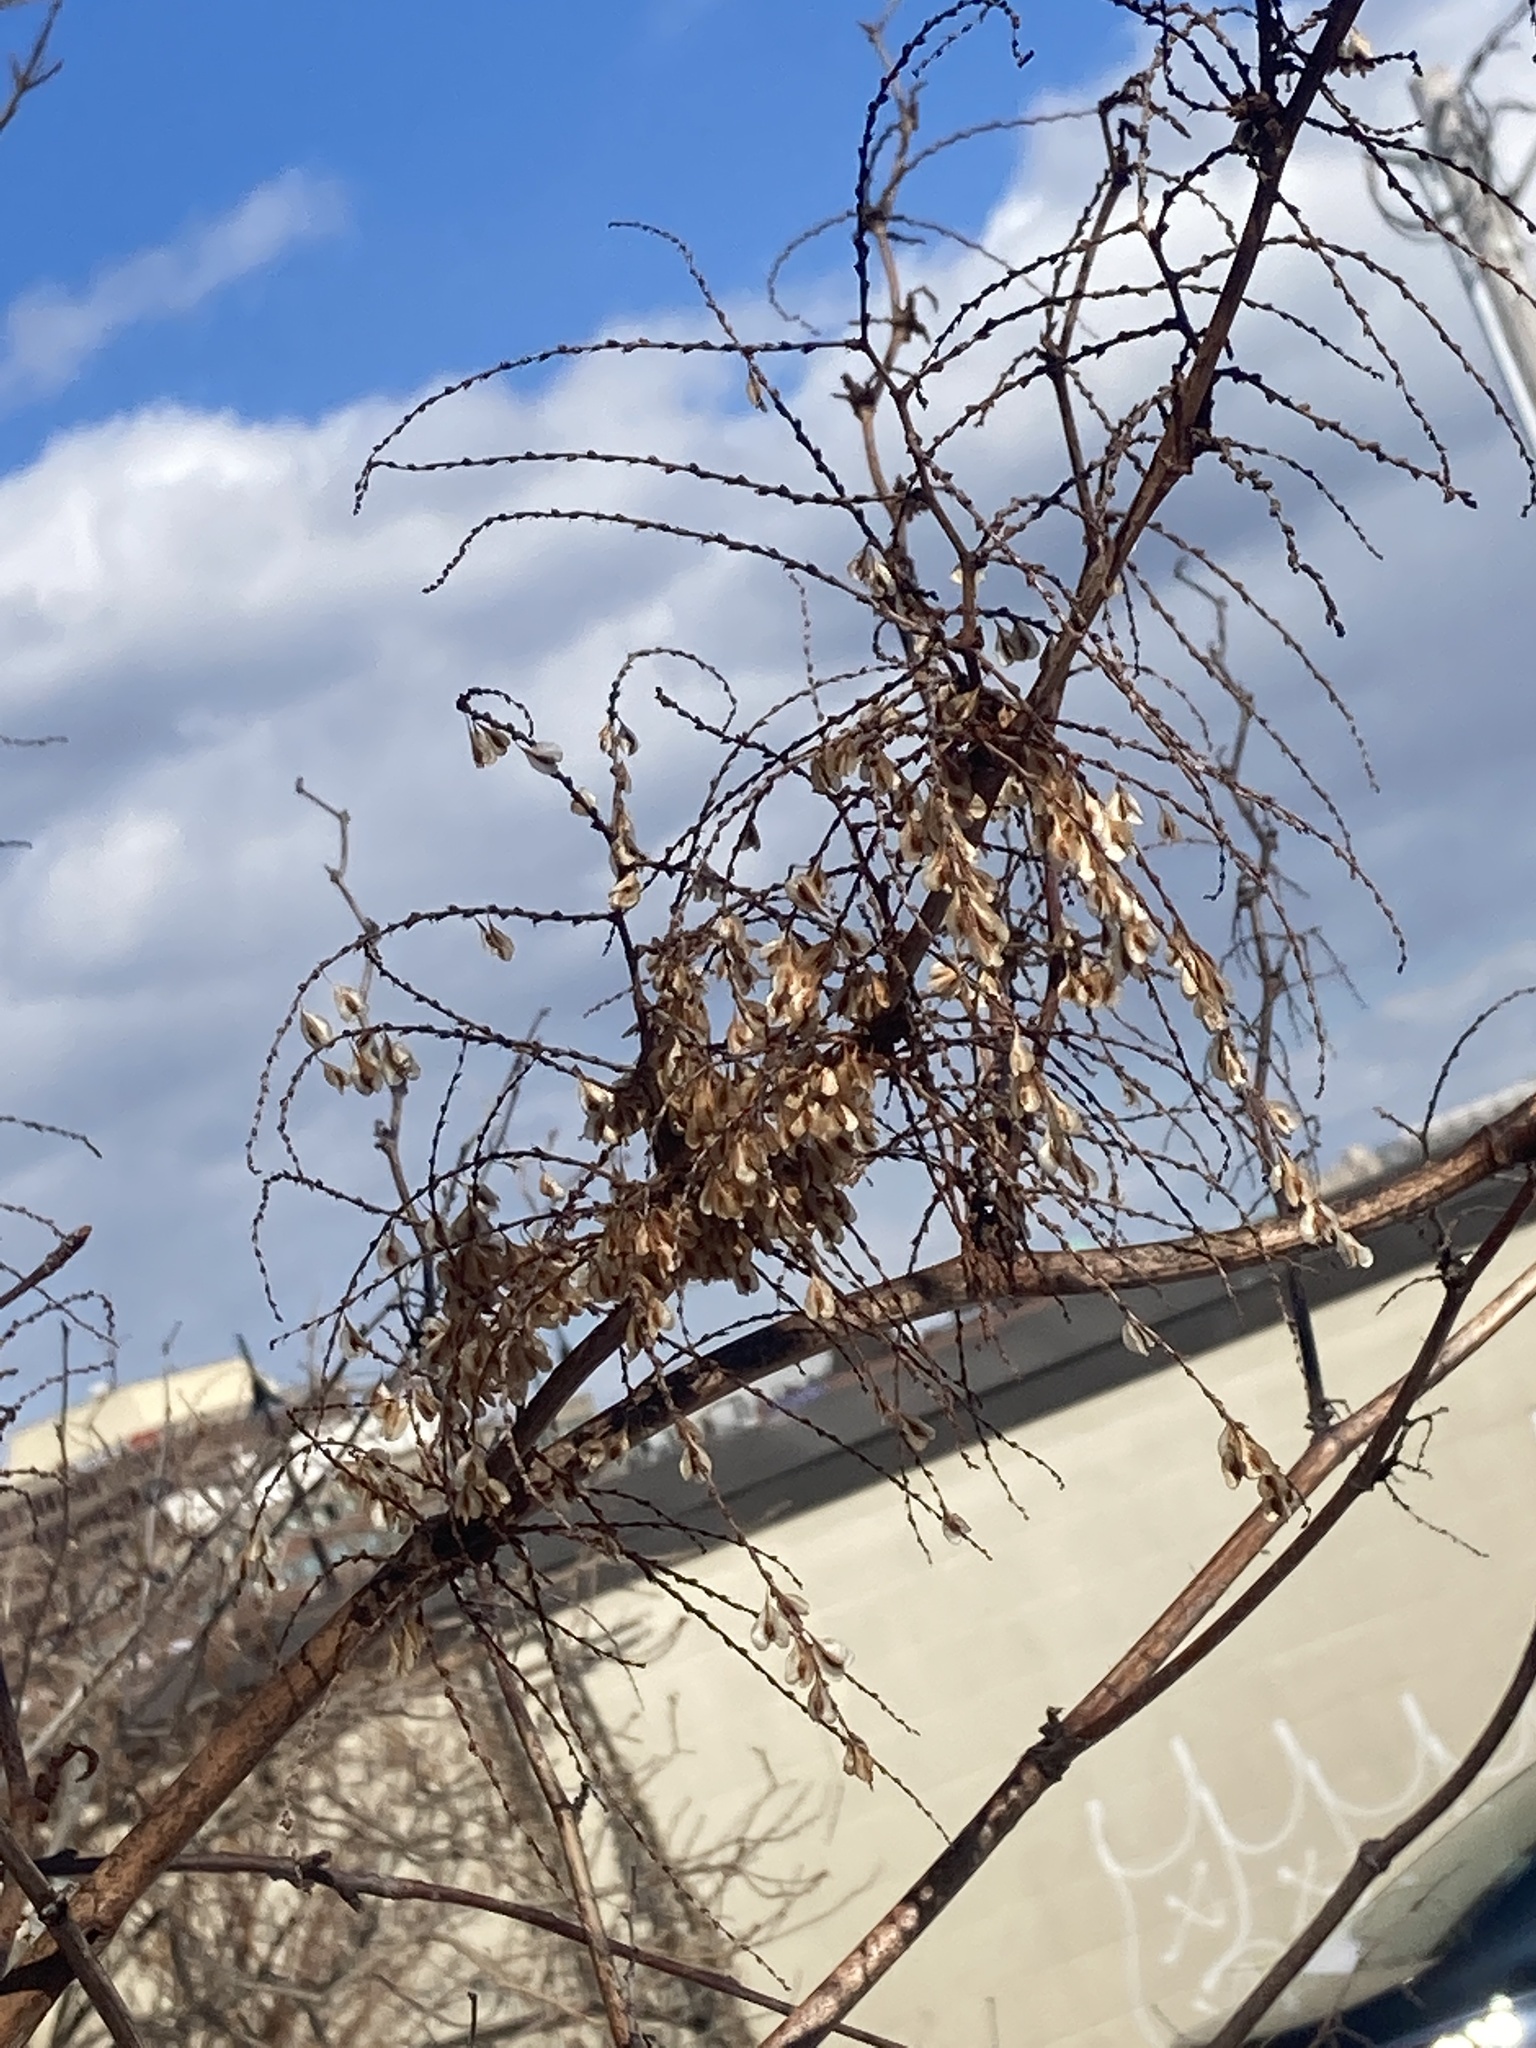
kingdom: Plantae
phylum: Tracheophyta
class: Magnoliopsida
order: Caryophyllales
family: Polygonaceae
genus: Reynoutria
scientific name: Reynoutria japonica
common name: Japanese knotweed
